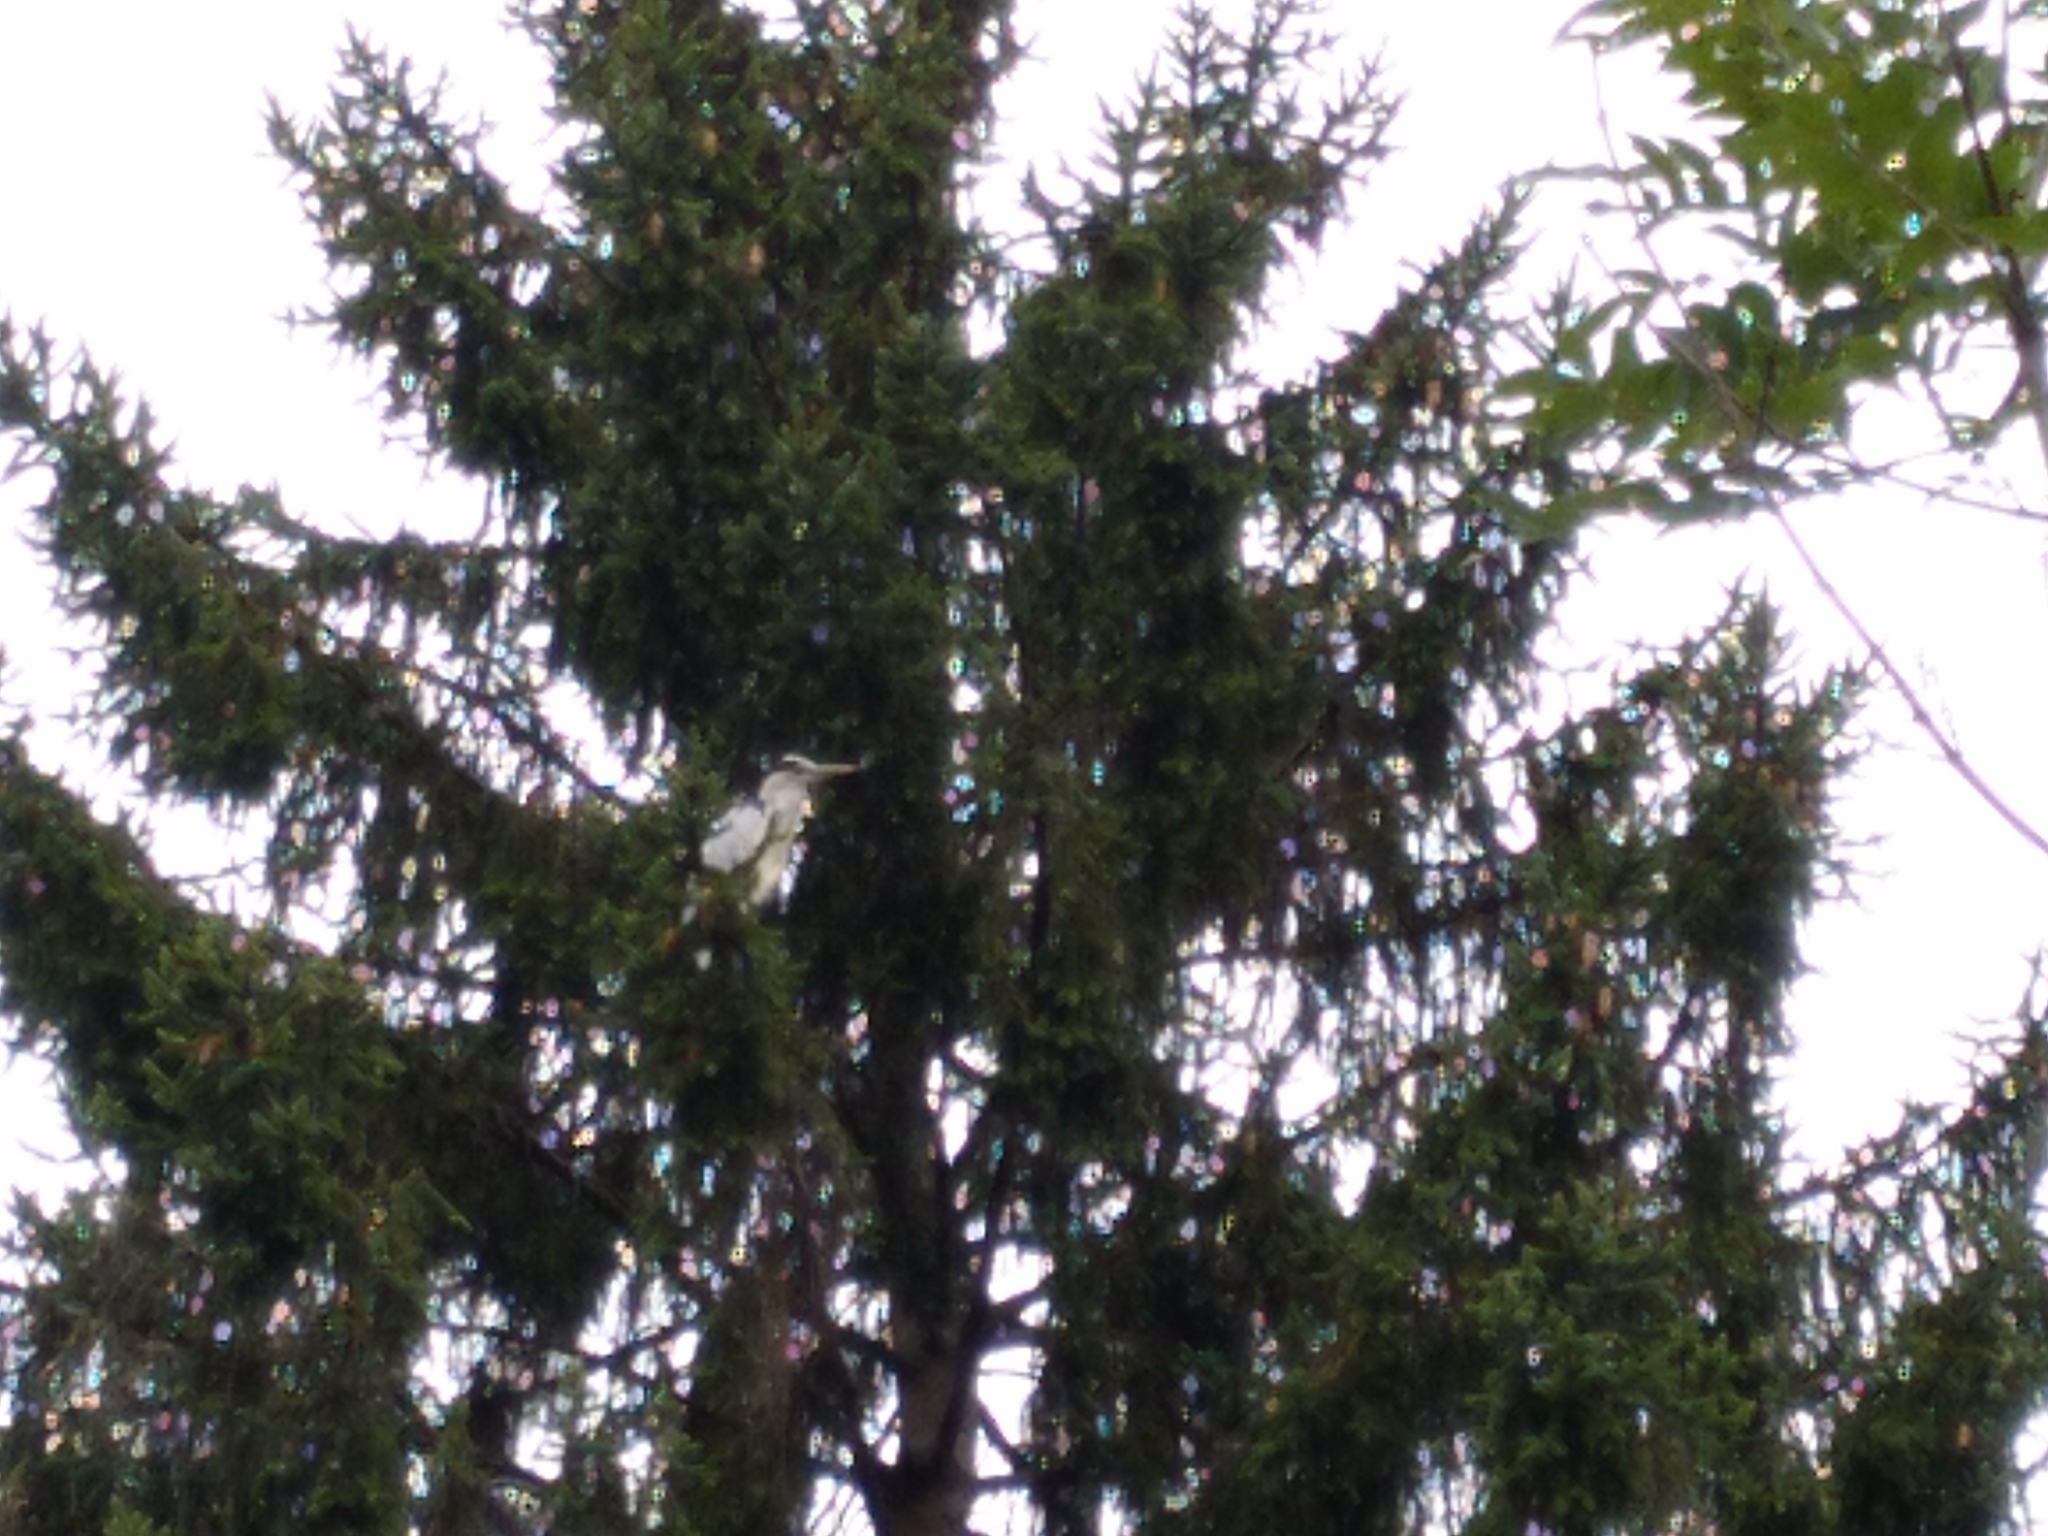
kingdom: Animalia
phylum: Chordata
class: Aves
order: Pelecaniformes
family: Ardeidae
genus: Ardea
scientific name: Ardea cinerea
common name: Grey heron
